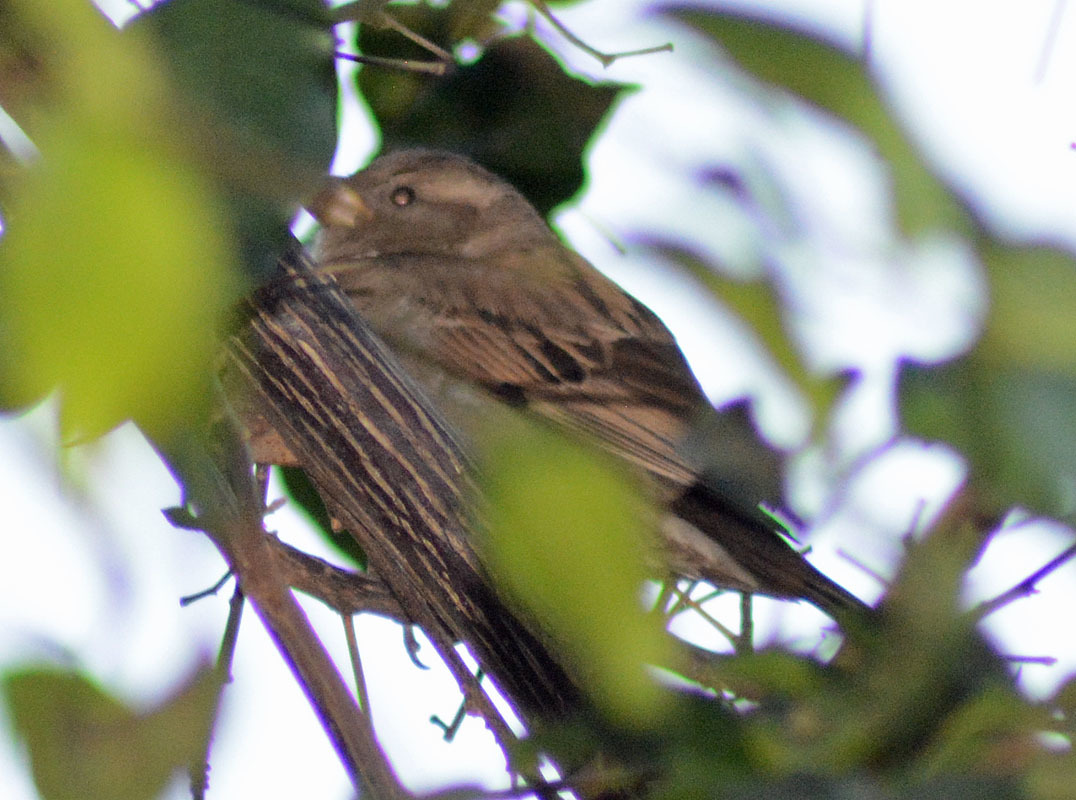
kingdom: Animalia
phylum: Chordata
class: Aves
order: Passeriformes
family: Passeridae
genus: Passer
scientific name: Passer domesticus
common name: House sparrow
